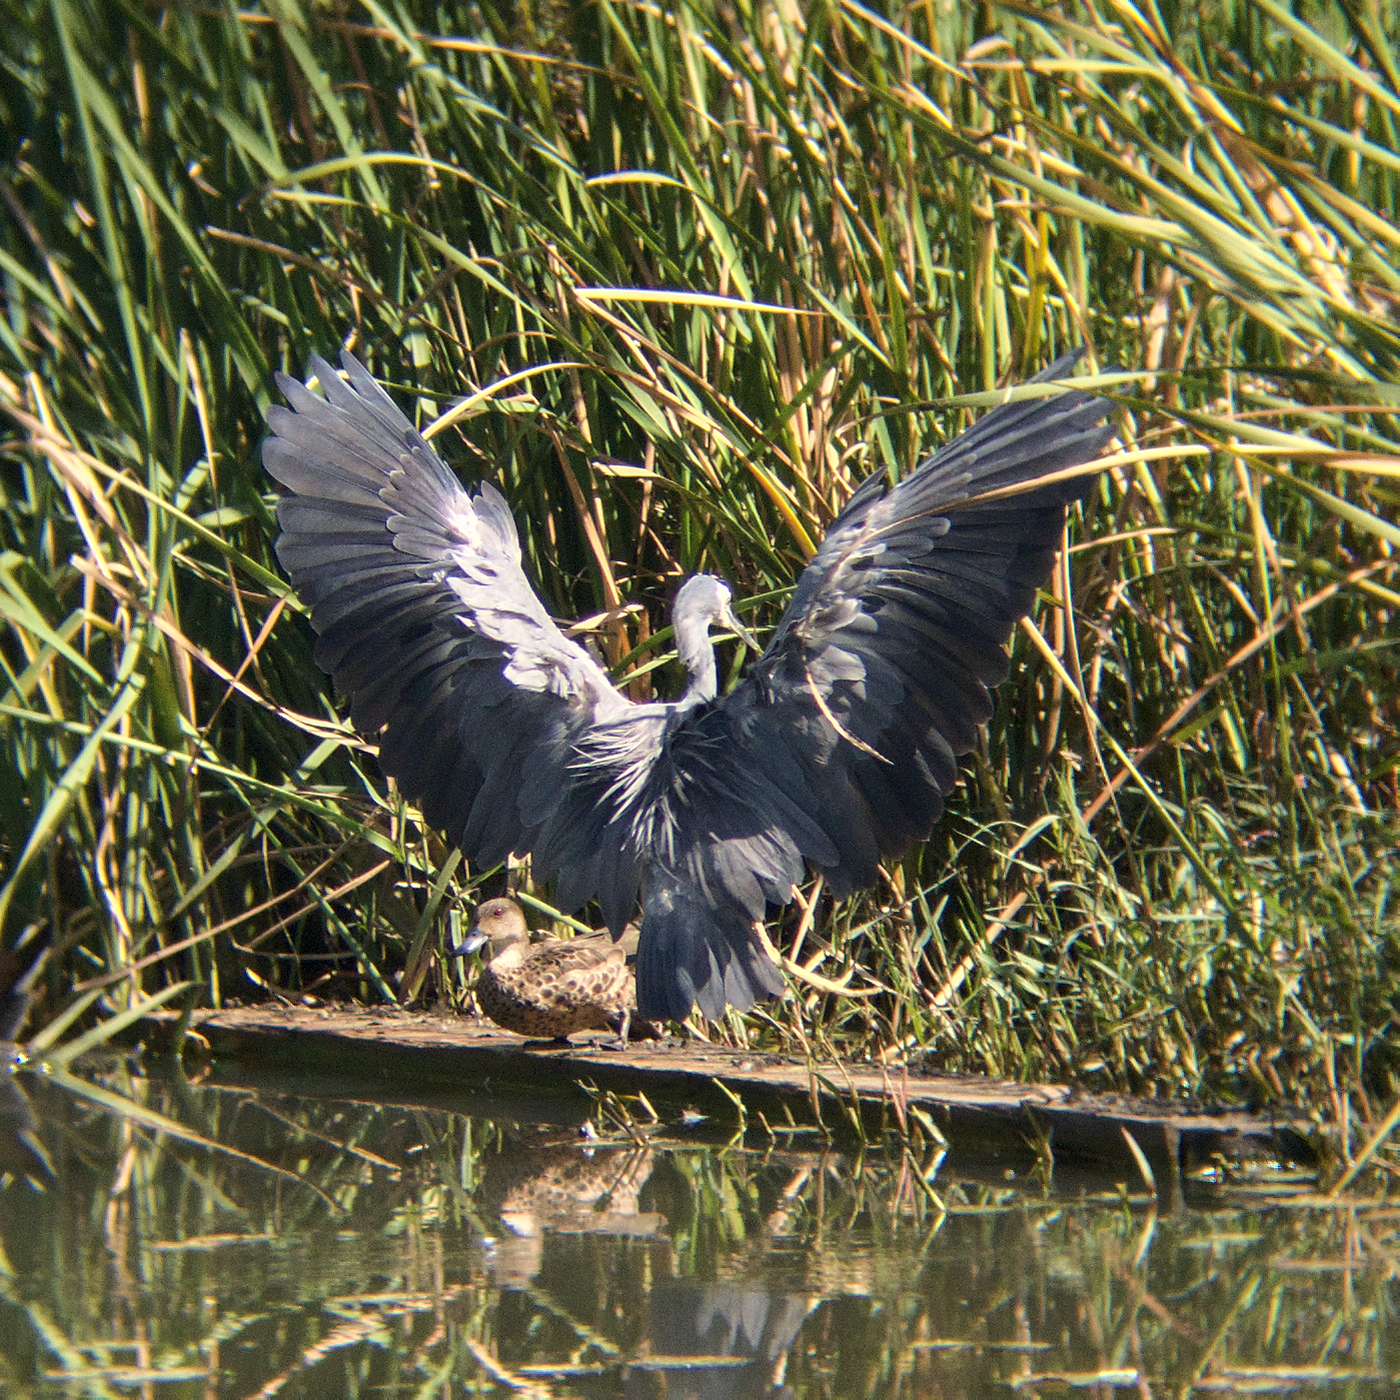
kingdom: Animalia
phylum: Chordata
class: Aves
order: Pelecaniformes
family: Ardeidae
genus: Egretta
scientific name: Egretta novaehollandiae
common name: White-faced heron
